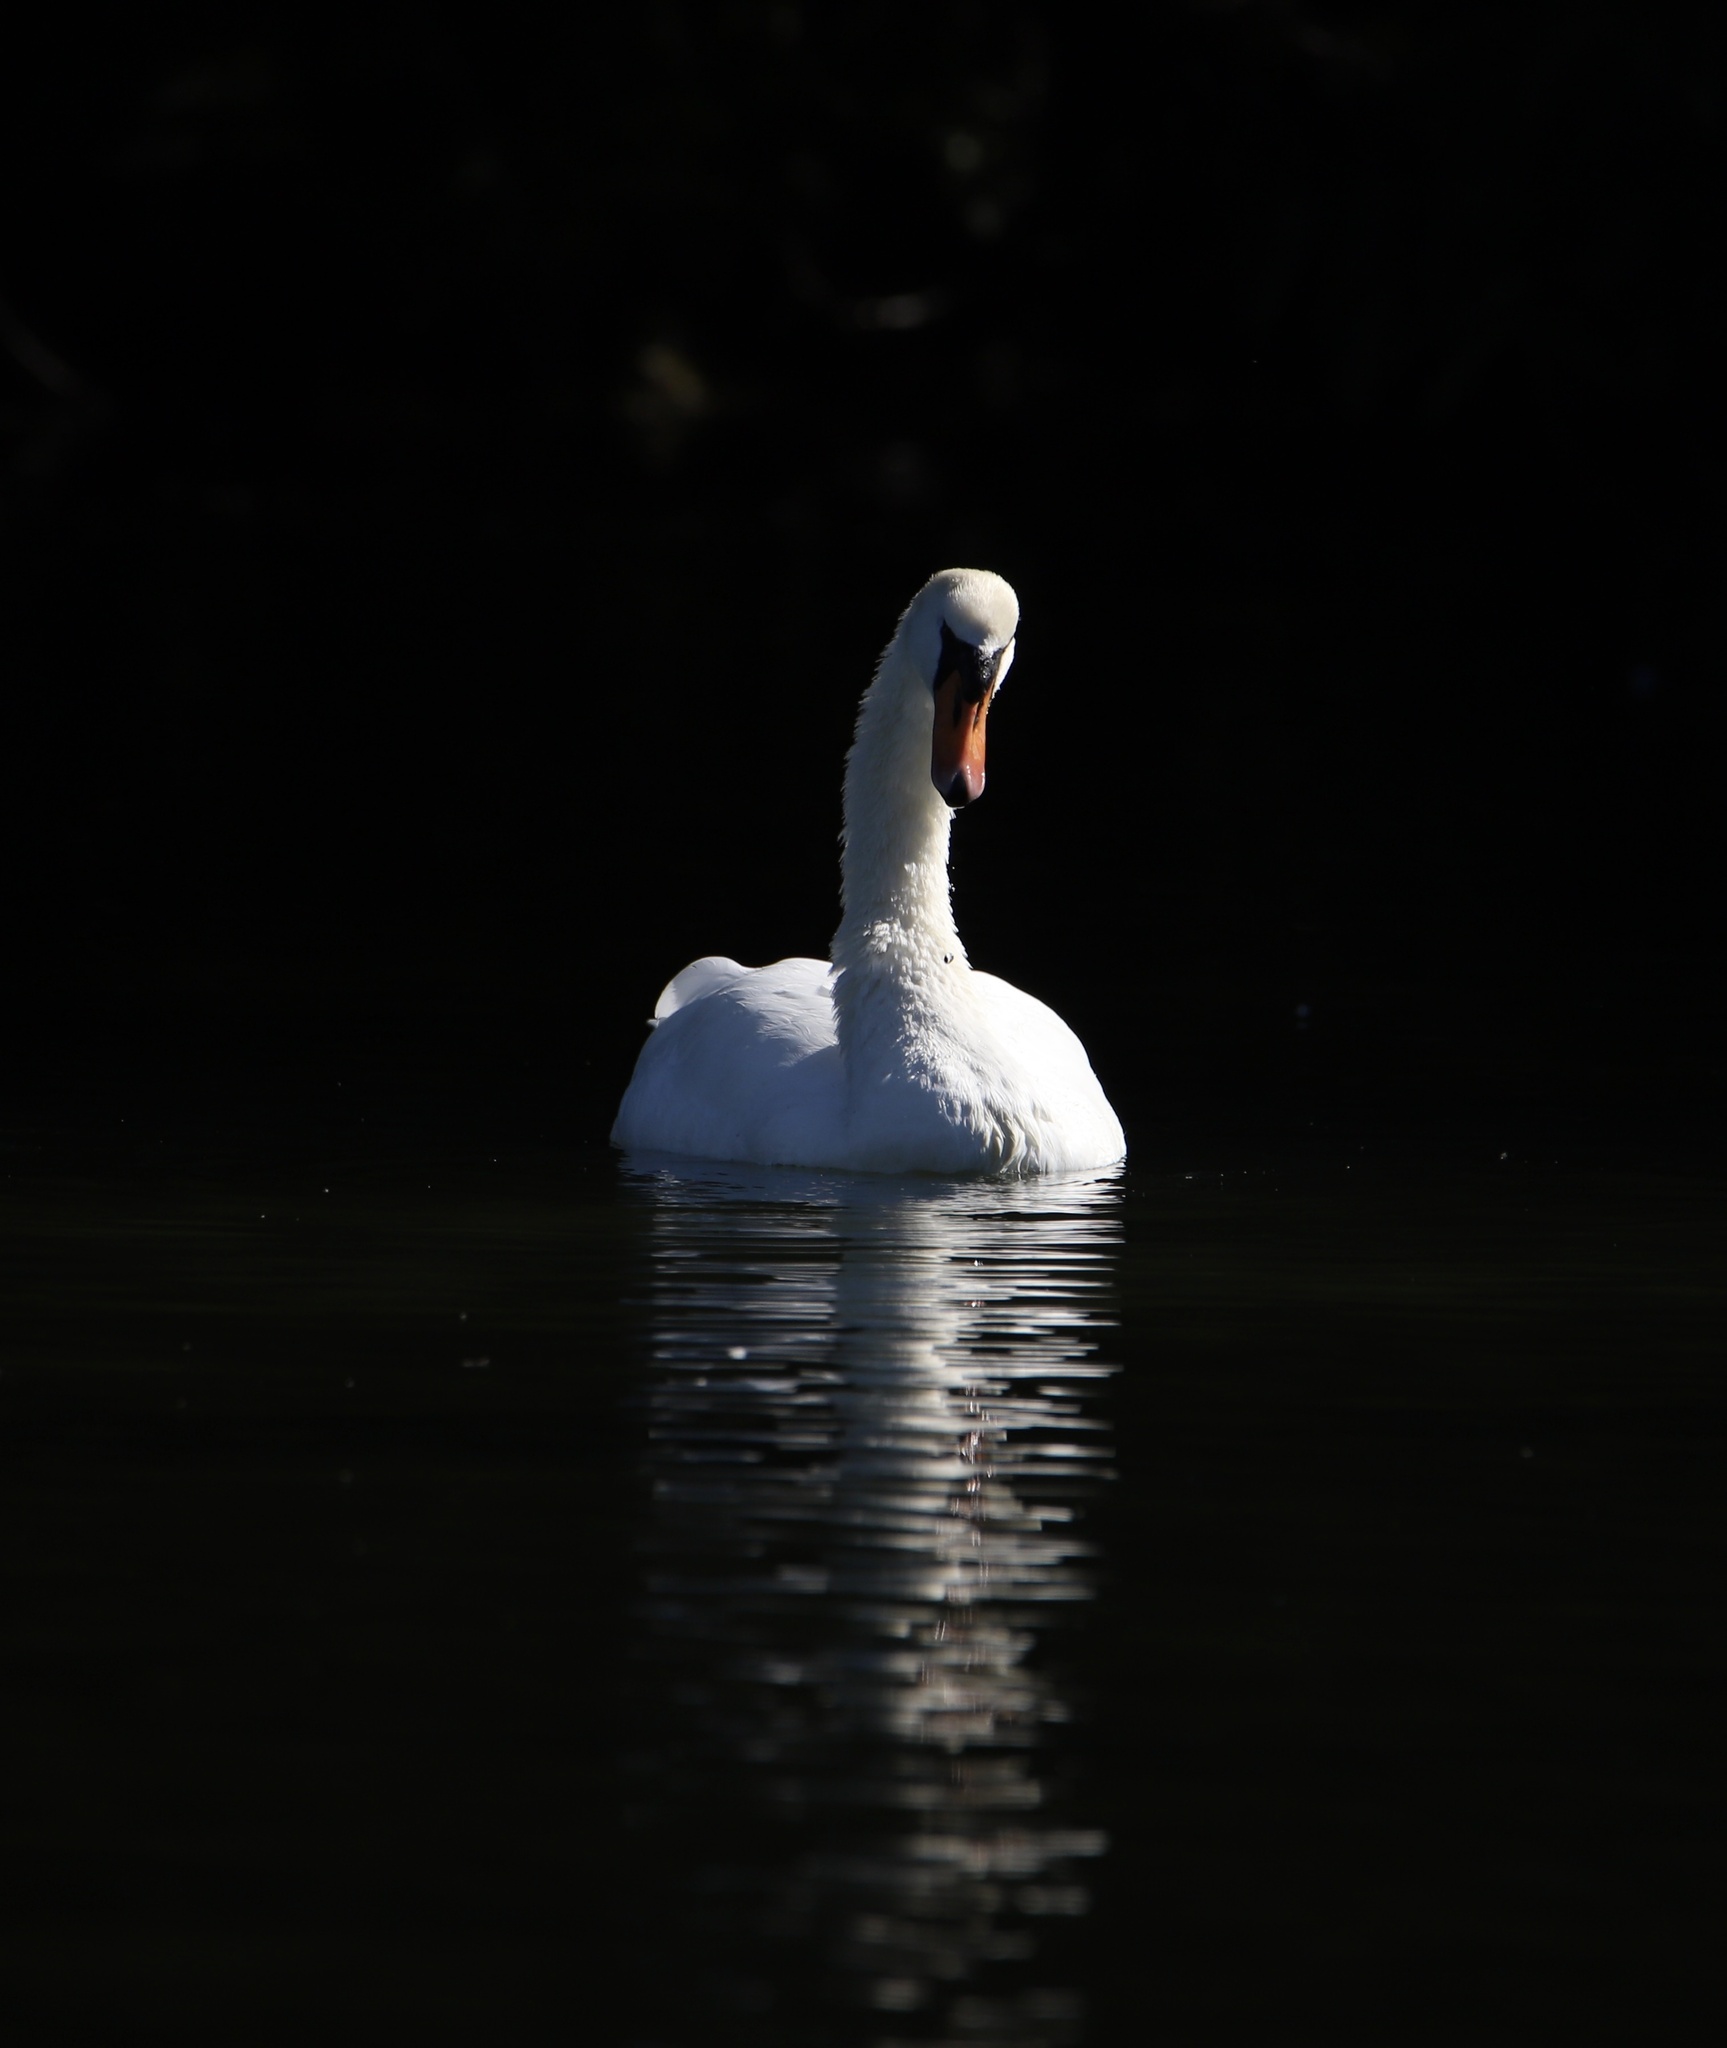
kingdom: Animalia
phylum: Chordata
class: Aves
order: Anseriformes
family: Anatidae
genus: Cygnus
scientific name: Cygnus olor
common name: Mute swan
